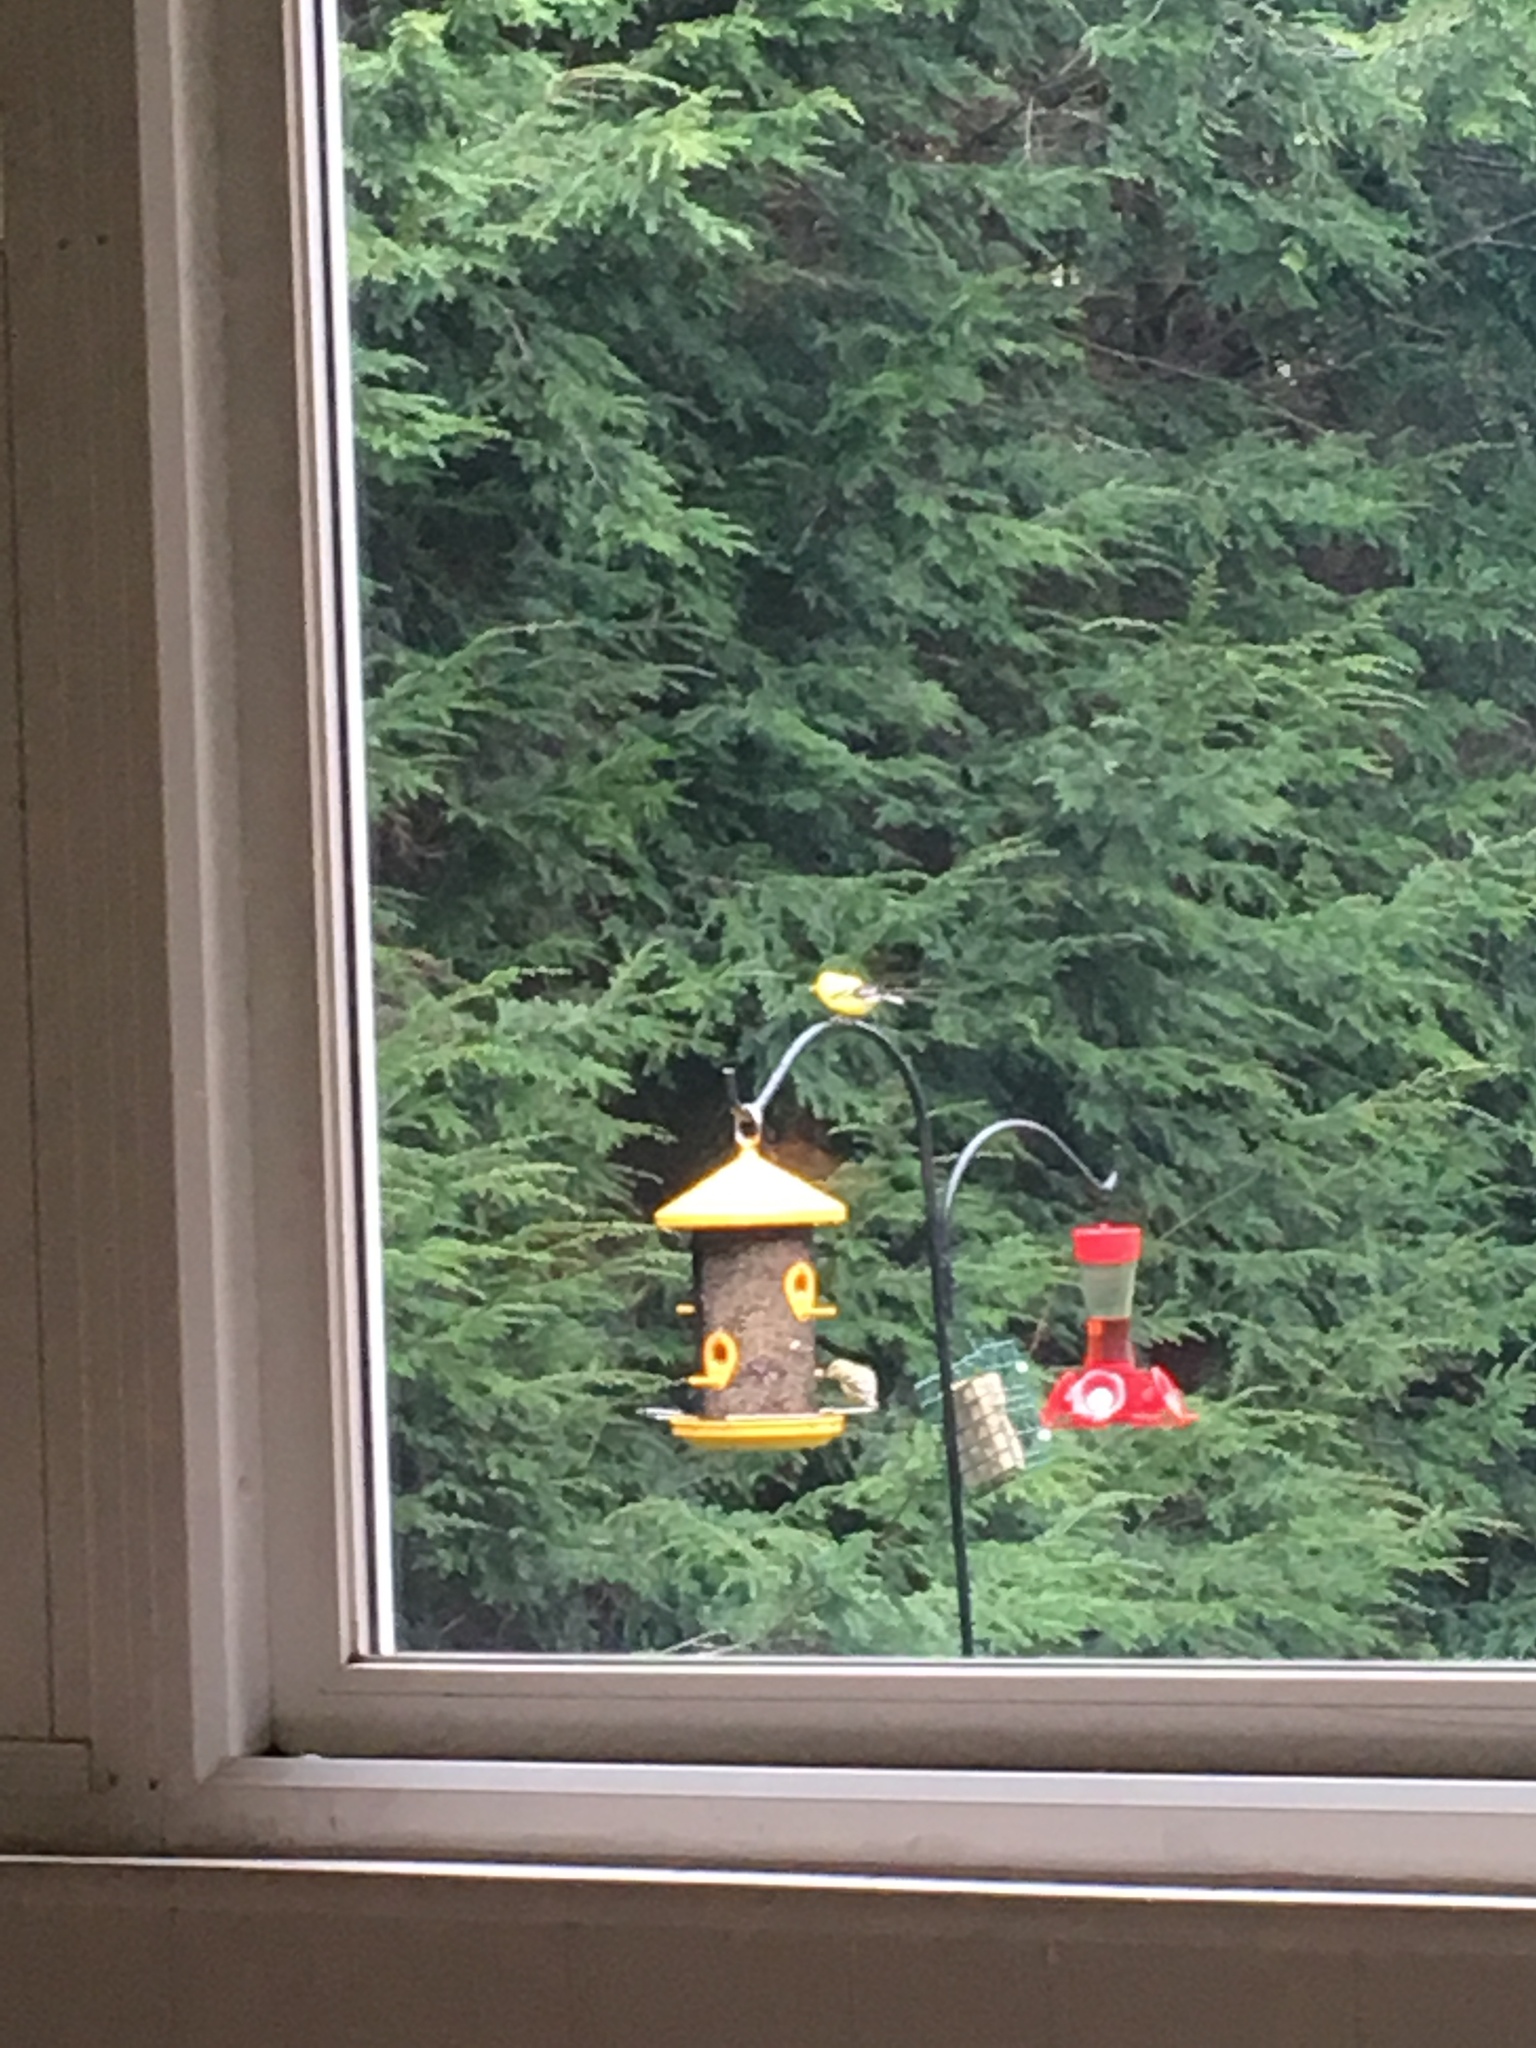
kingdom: Animalia
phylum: Chordata
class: Aves
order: Passeriformes
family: Fringillidae
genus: Spinus
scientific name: Spinus tristis
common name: American goldfinch
